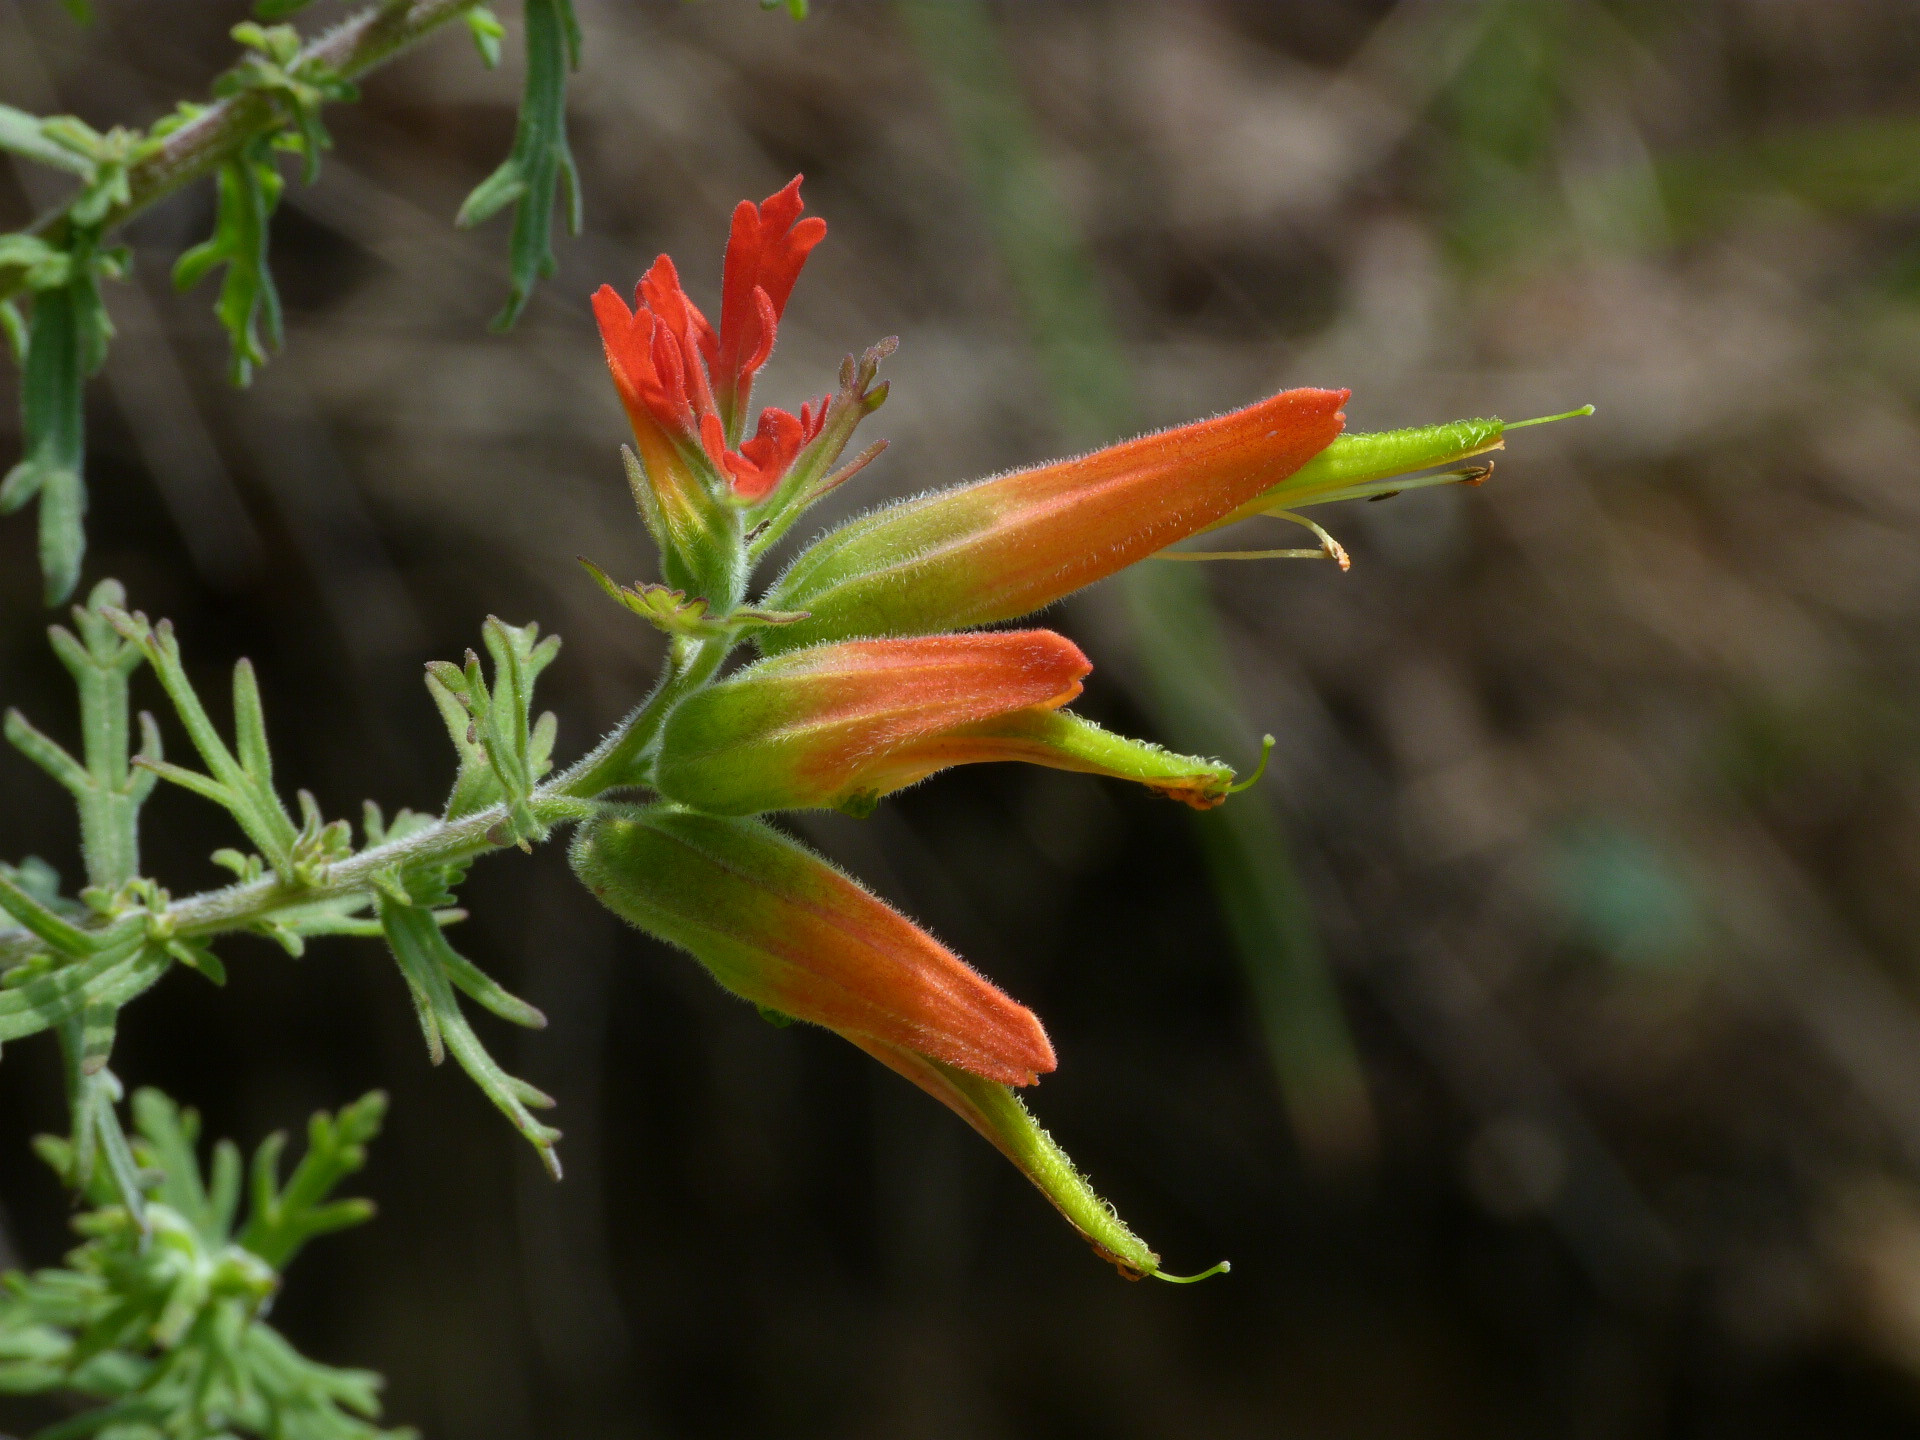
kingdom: Plantae
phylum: Tracheophyta
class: Magnoliopsida
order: Lamiales
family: Orobanchaceae
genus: Castilleja
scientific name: Castilleja fissifolia
